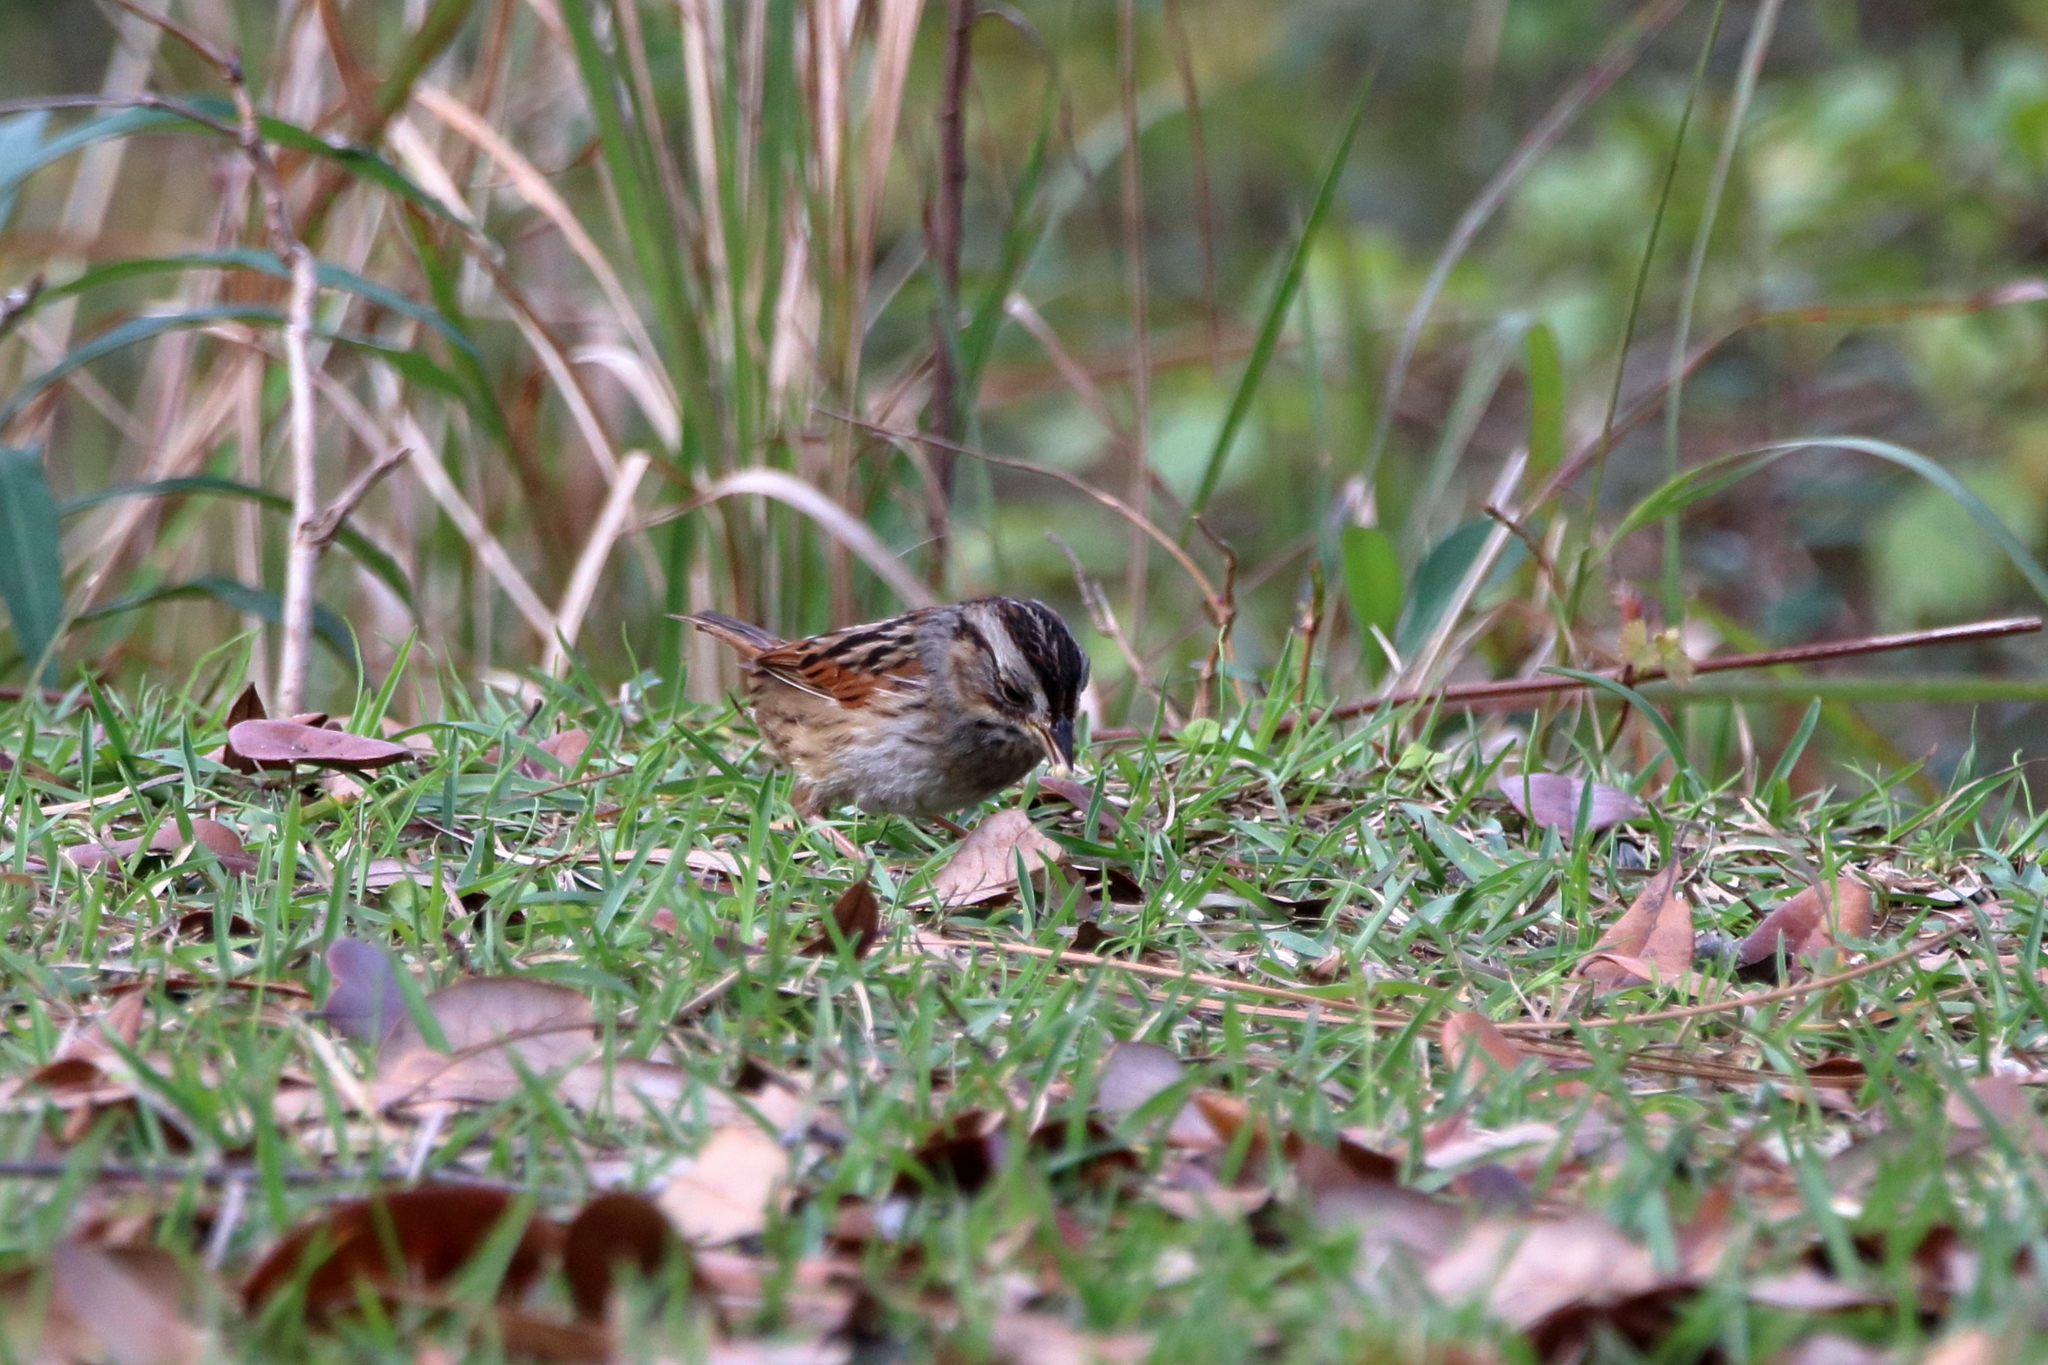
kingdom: Animalia
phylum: Chordata
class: Aves
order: Passeriformes
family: Passerellidae
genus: Melospiza
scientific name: Melospiza georgiana
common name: Swamp sparrow
